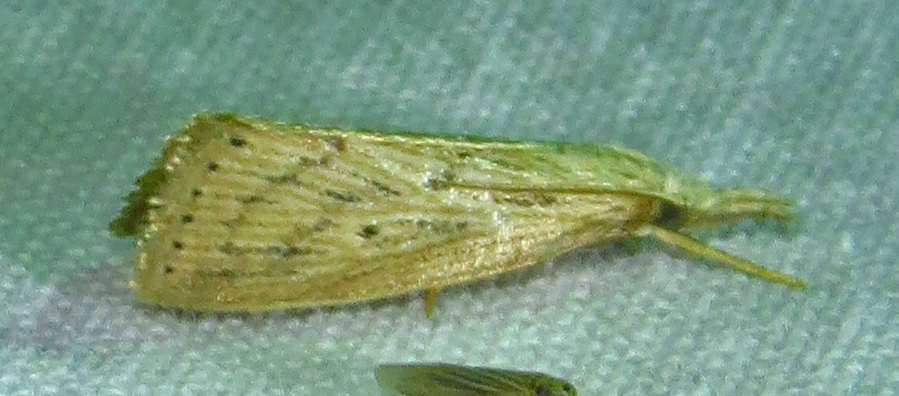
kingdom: Animalia
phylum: Arthropoda
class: Insecta
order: Lepidoptera
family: Crambidae
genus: Diatraea
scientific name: Diatraea lisetta
